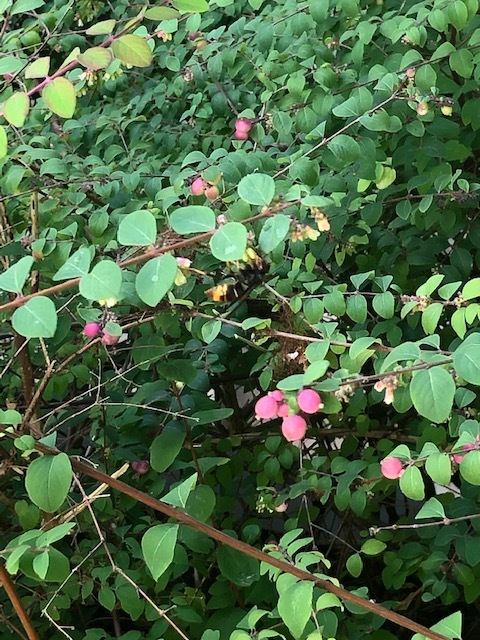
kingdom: Animalia
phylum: Arthropoda
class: Insecta
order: Hymenoptera
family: Vespidae
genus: Vespa
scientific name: Vespa velutina
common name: Asian hornet
